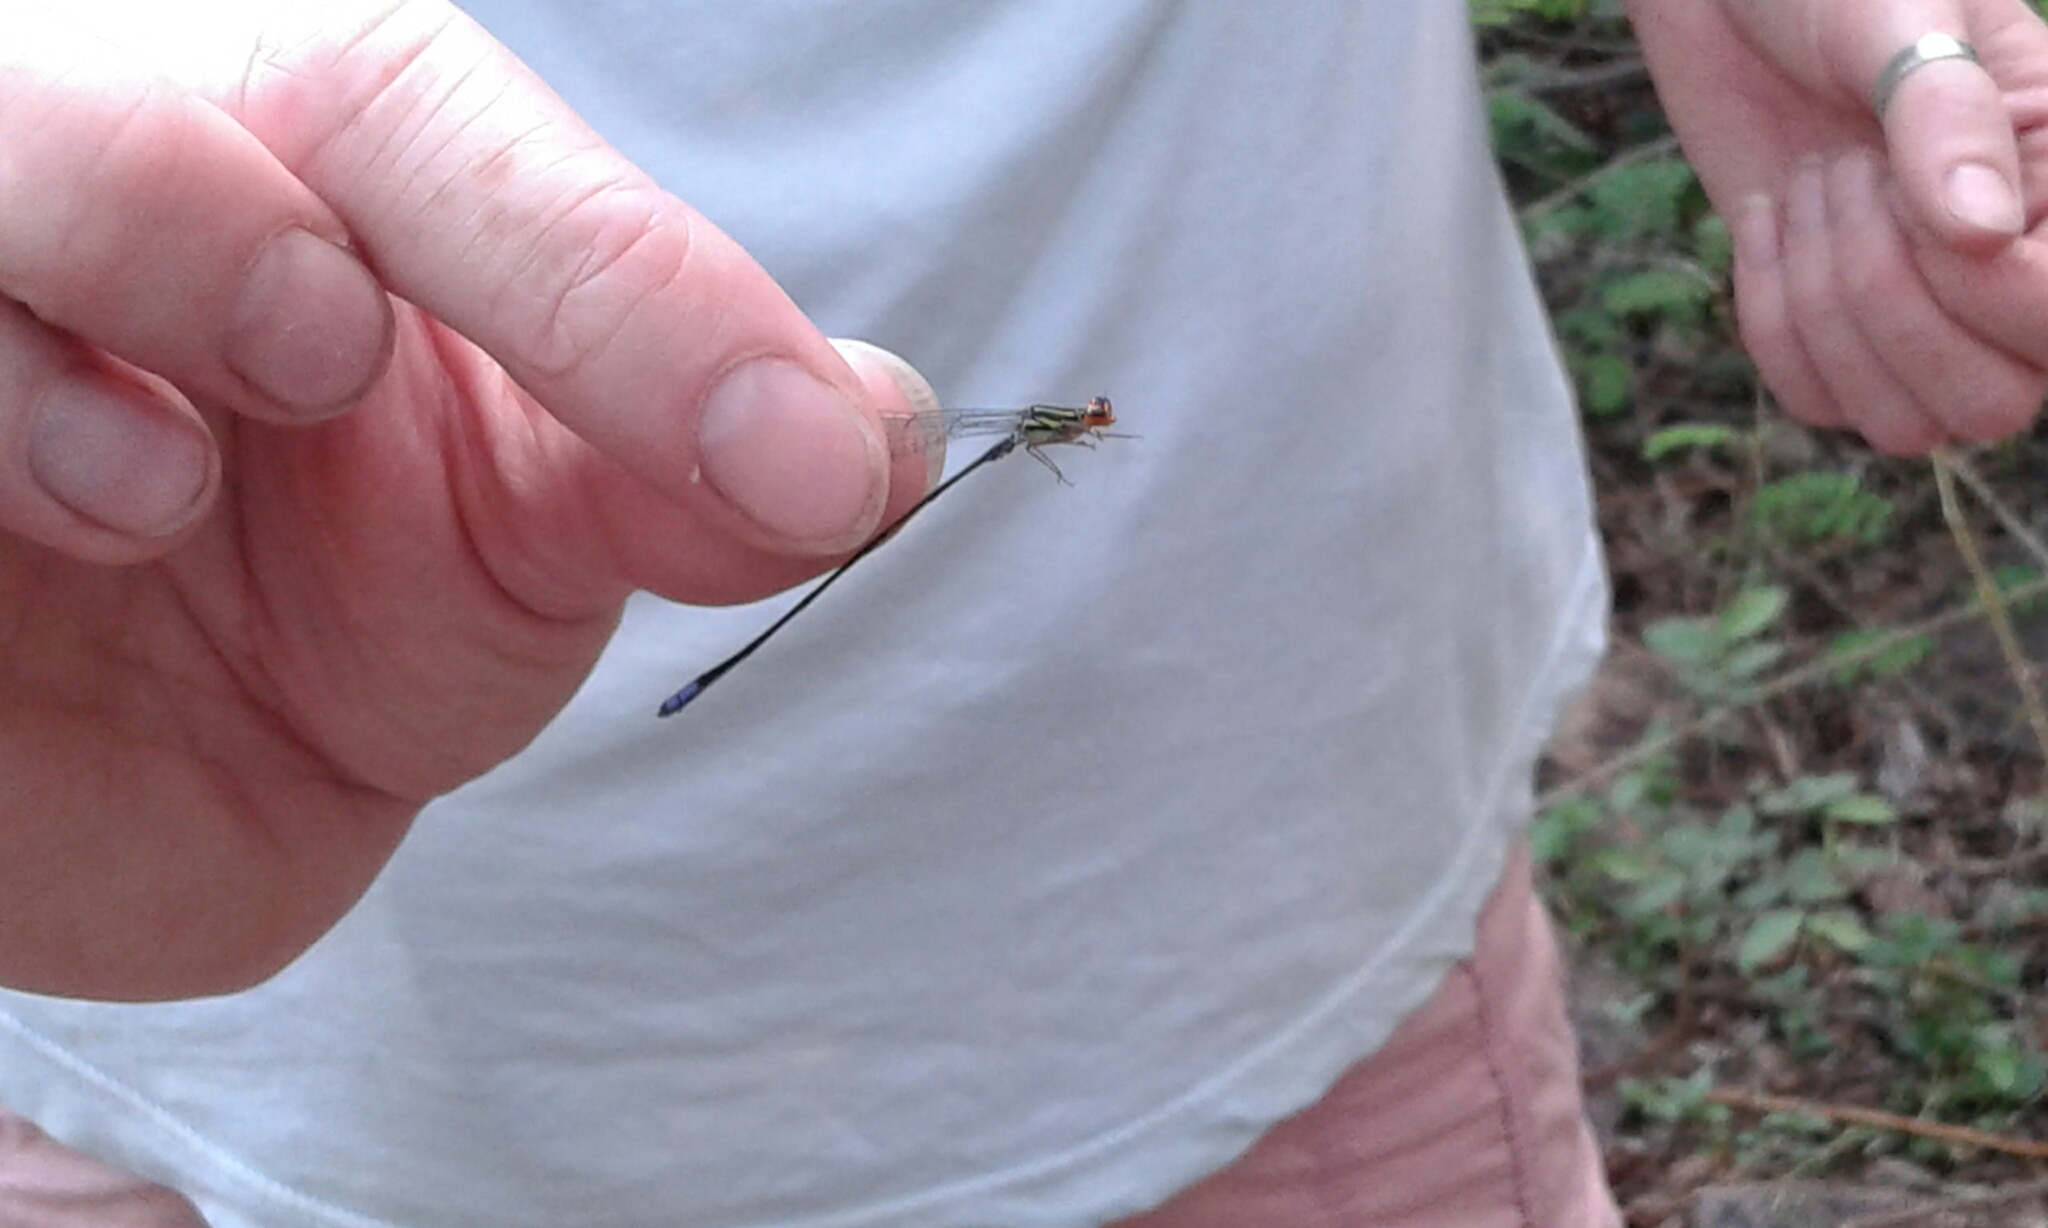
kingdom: Animalia
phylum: Arthropoda
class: Insecta
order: Odonata
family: Coenagrionidae
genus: Pseudagrion
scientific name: Pseudagrion hageni
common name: Painted sprite
